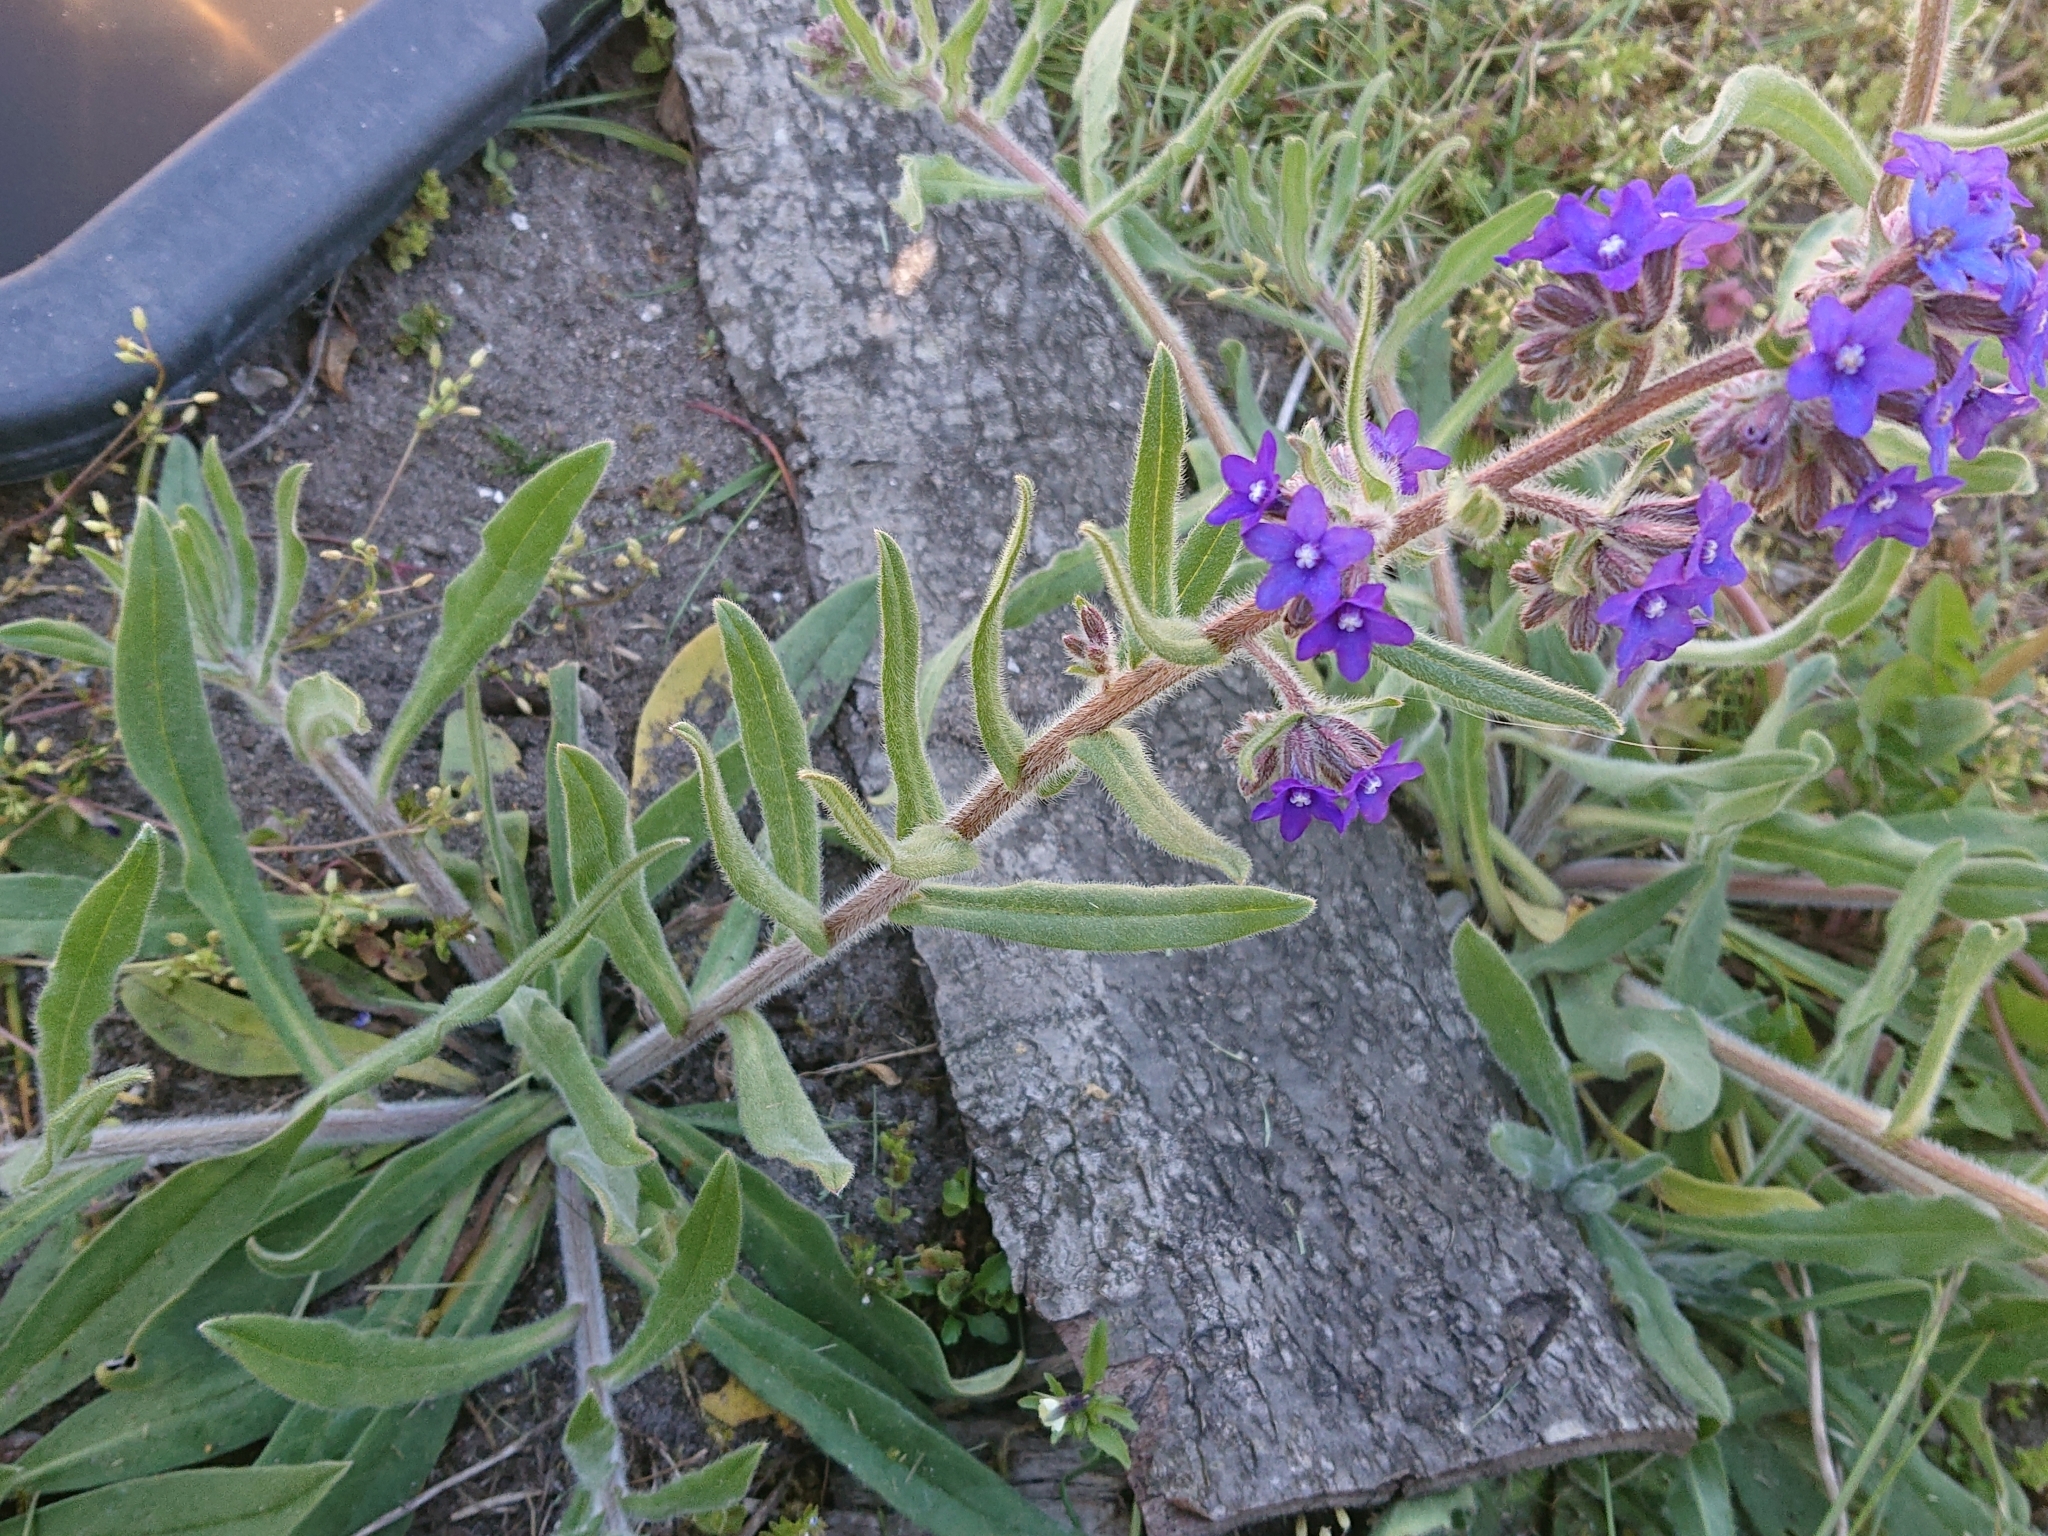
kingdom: Plantae
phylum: Tracheophyta
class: Magnoliopsida
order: Boraginales
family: Boraginaceae
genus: Anchusa
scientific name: Anchusa officinalis
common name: Alkanet
